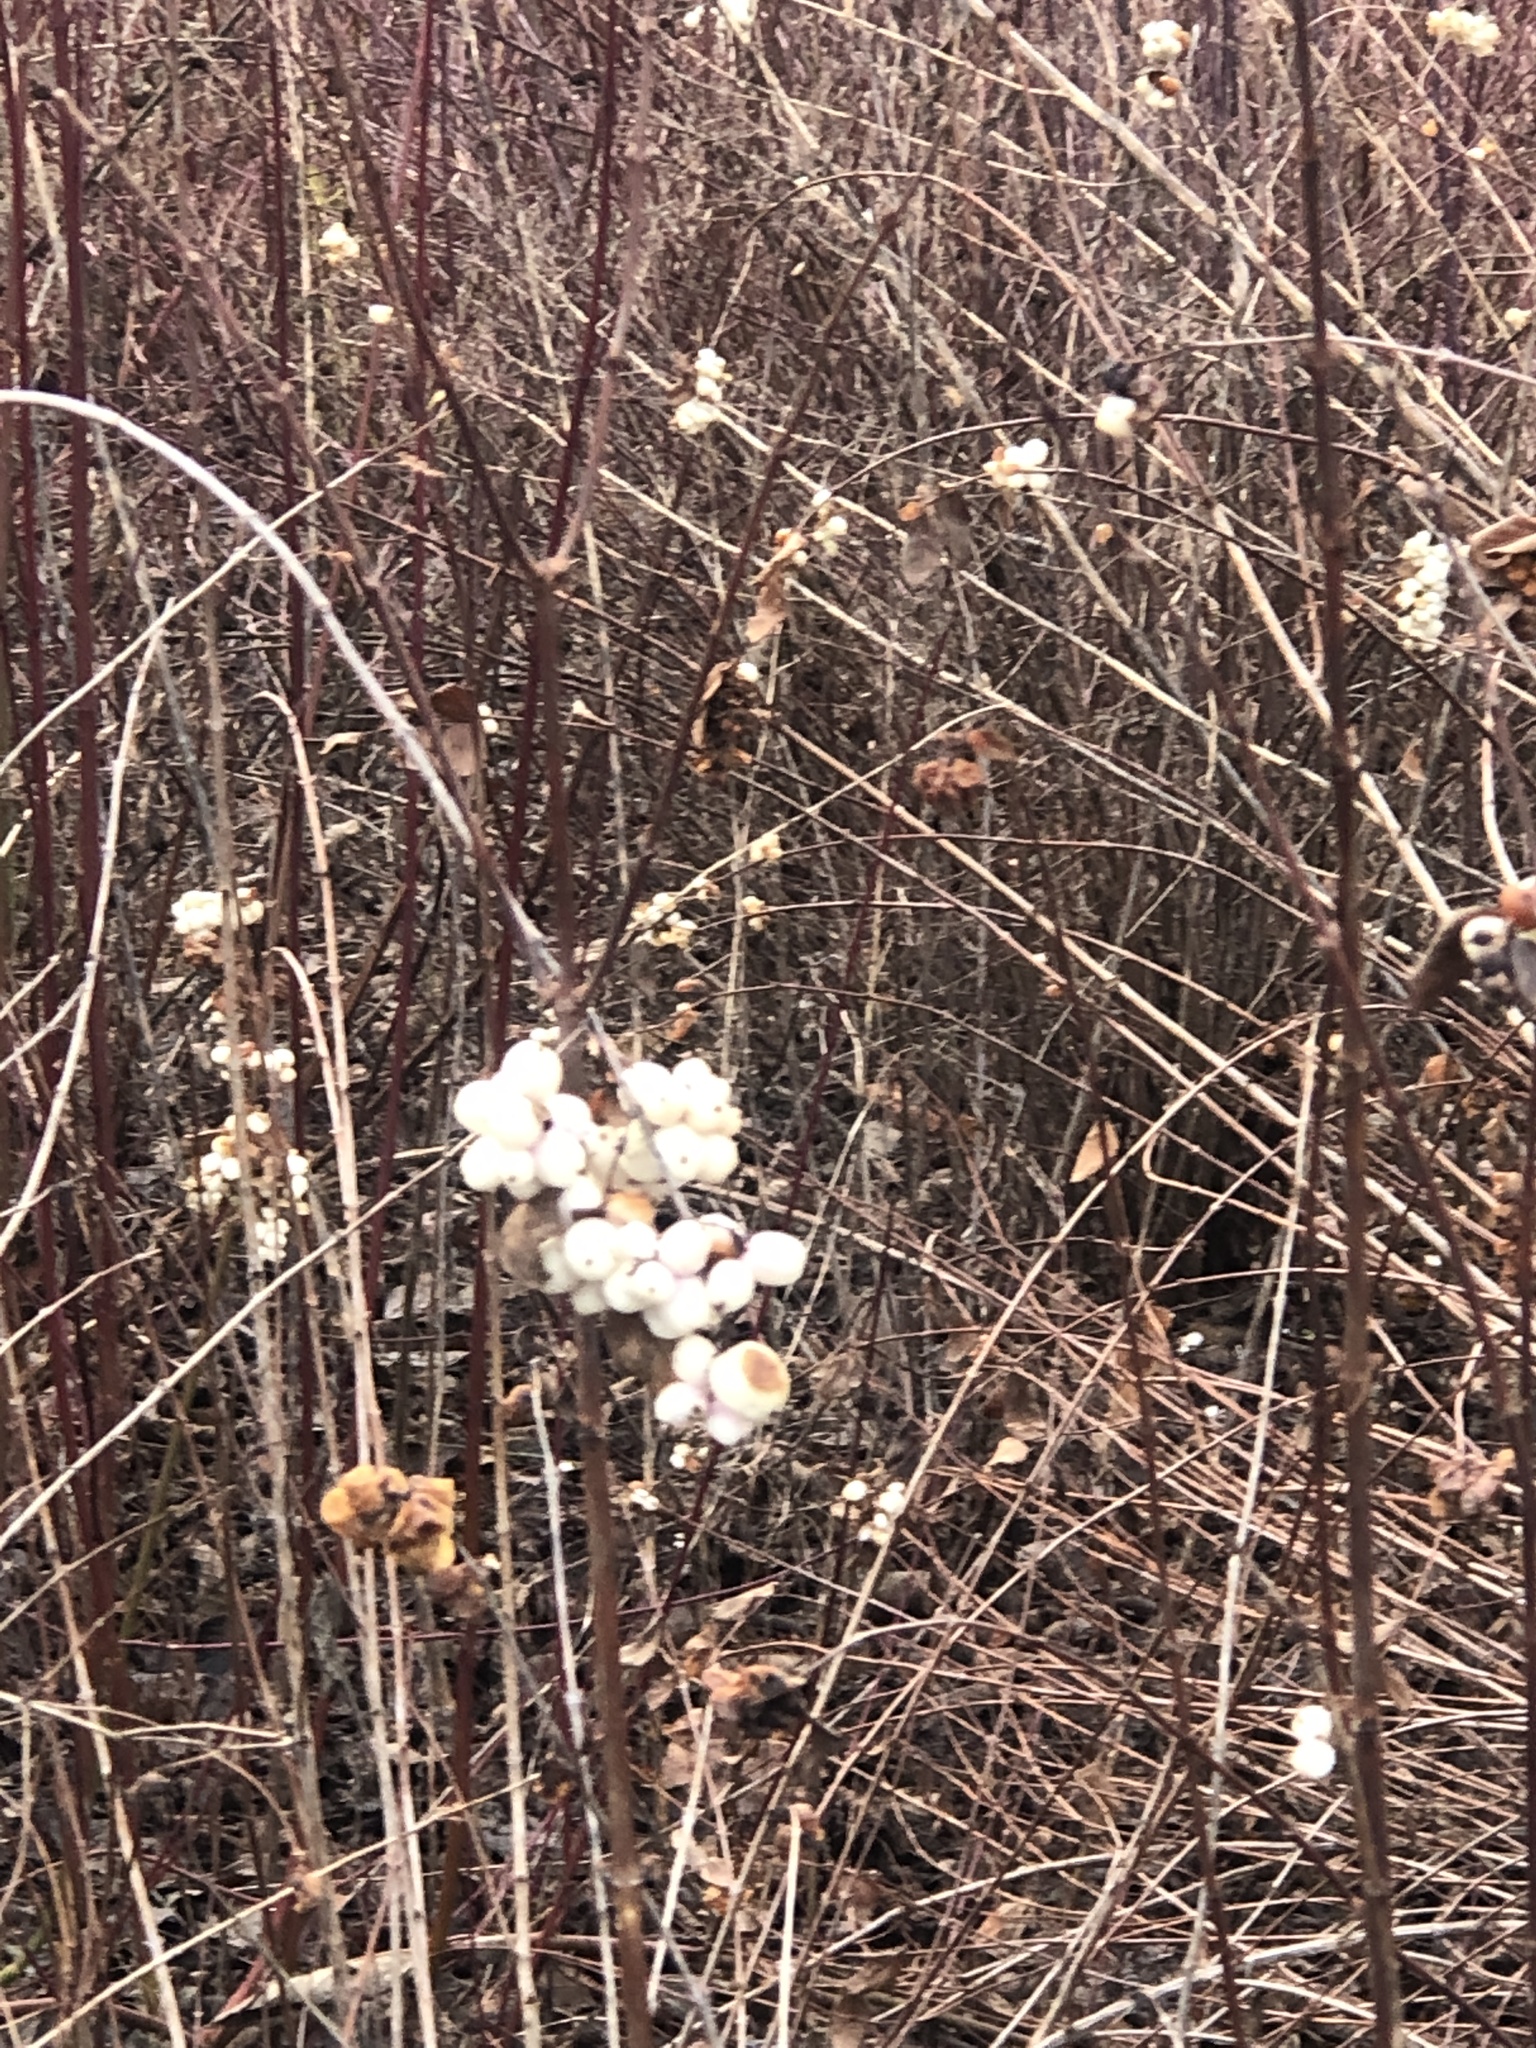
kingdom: Plantae
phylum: Tracheophyta
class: Magnoliopsida
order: Dipsacales
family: Caprifoliaceae
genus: Symphoricarpos
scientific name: Symphoricarpos albus
